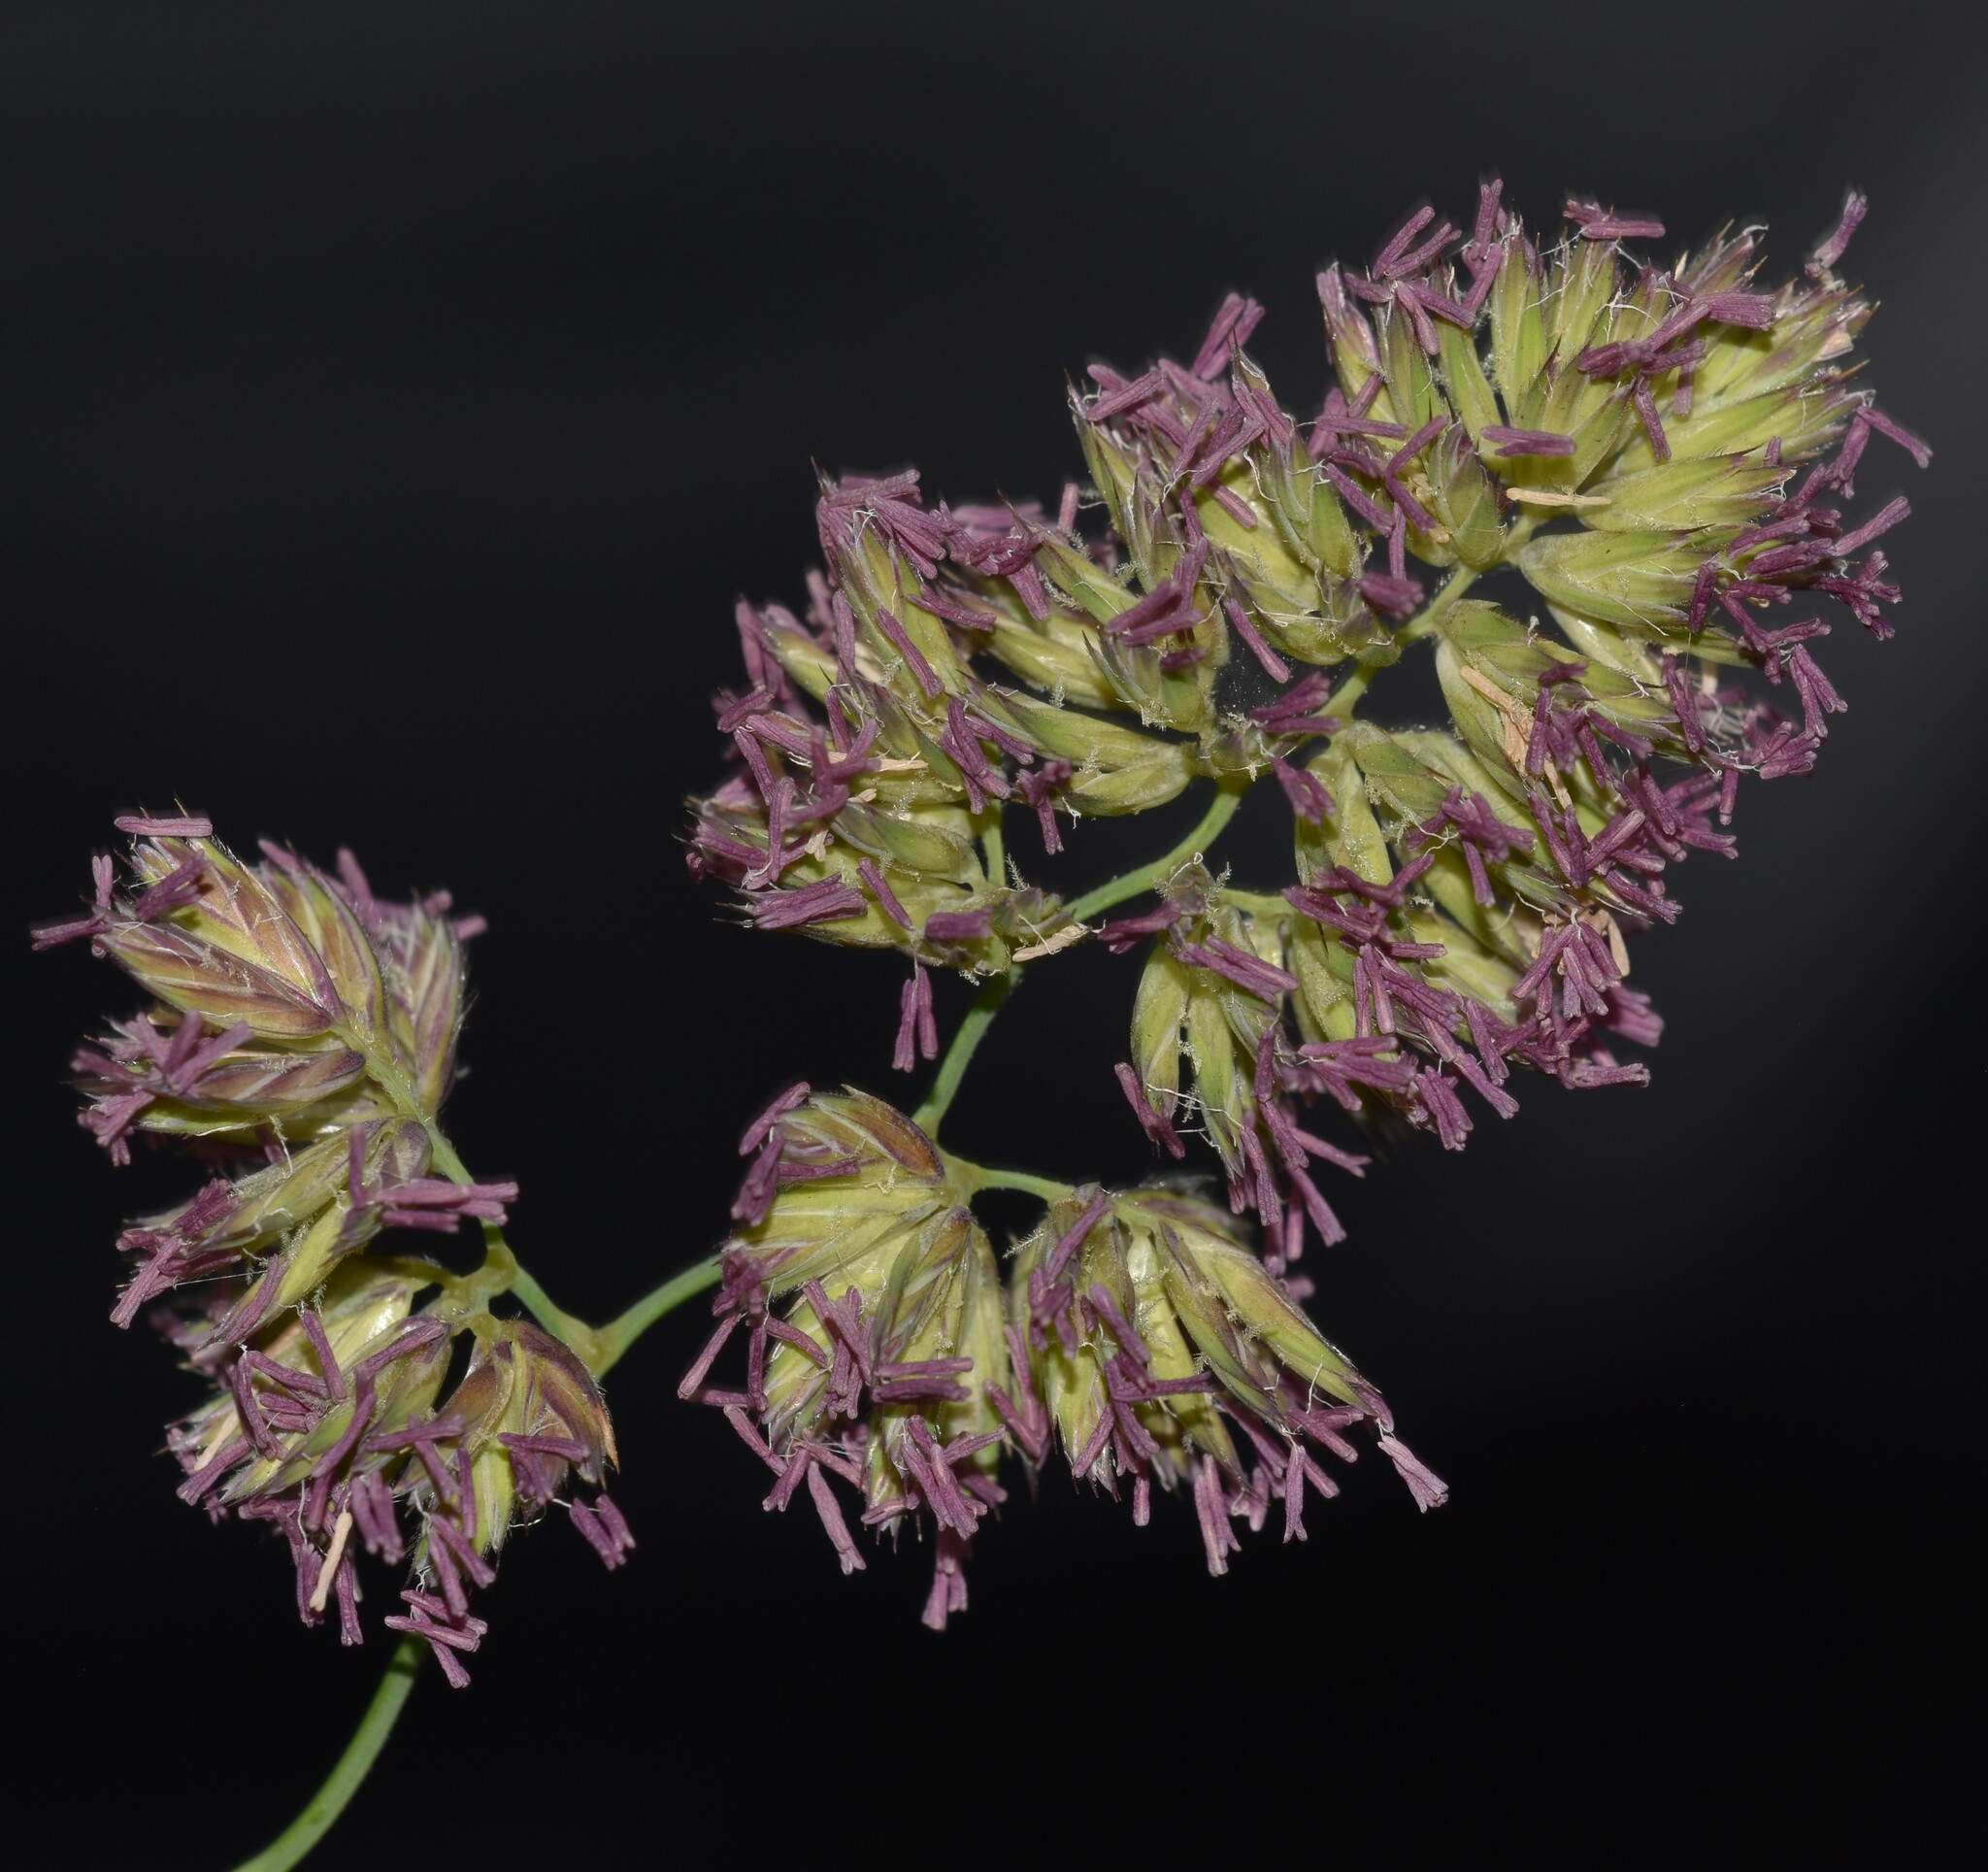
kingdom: Plantae
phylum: Tracheophyta
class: Liliopsida
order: Poales
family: Poaceae
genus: Dactylis
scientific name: Dactylis glomerata
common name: Orchardgrass
